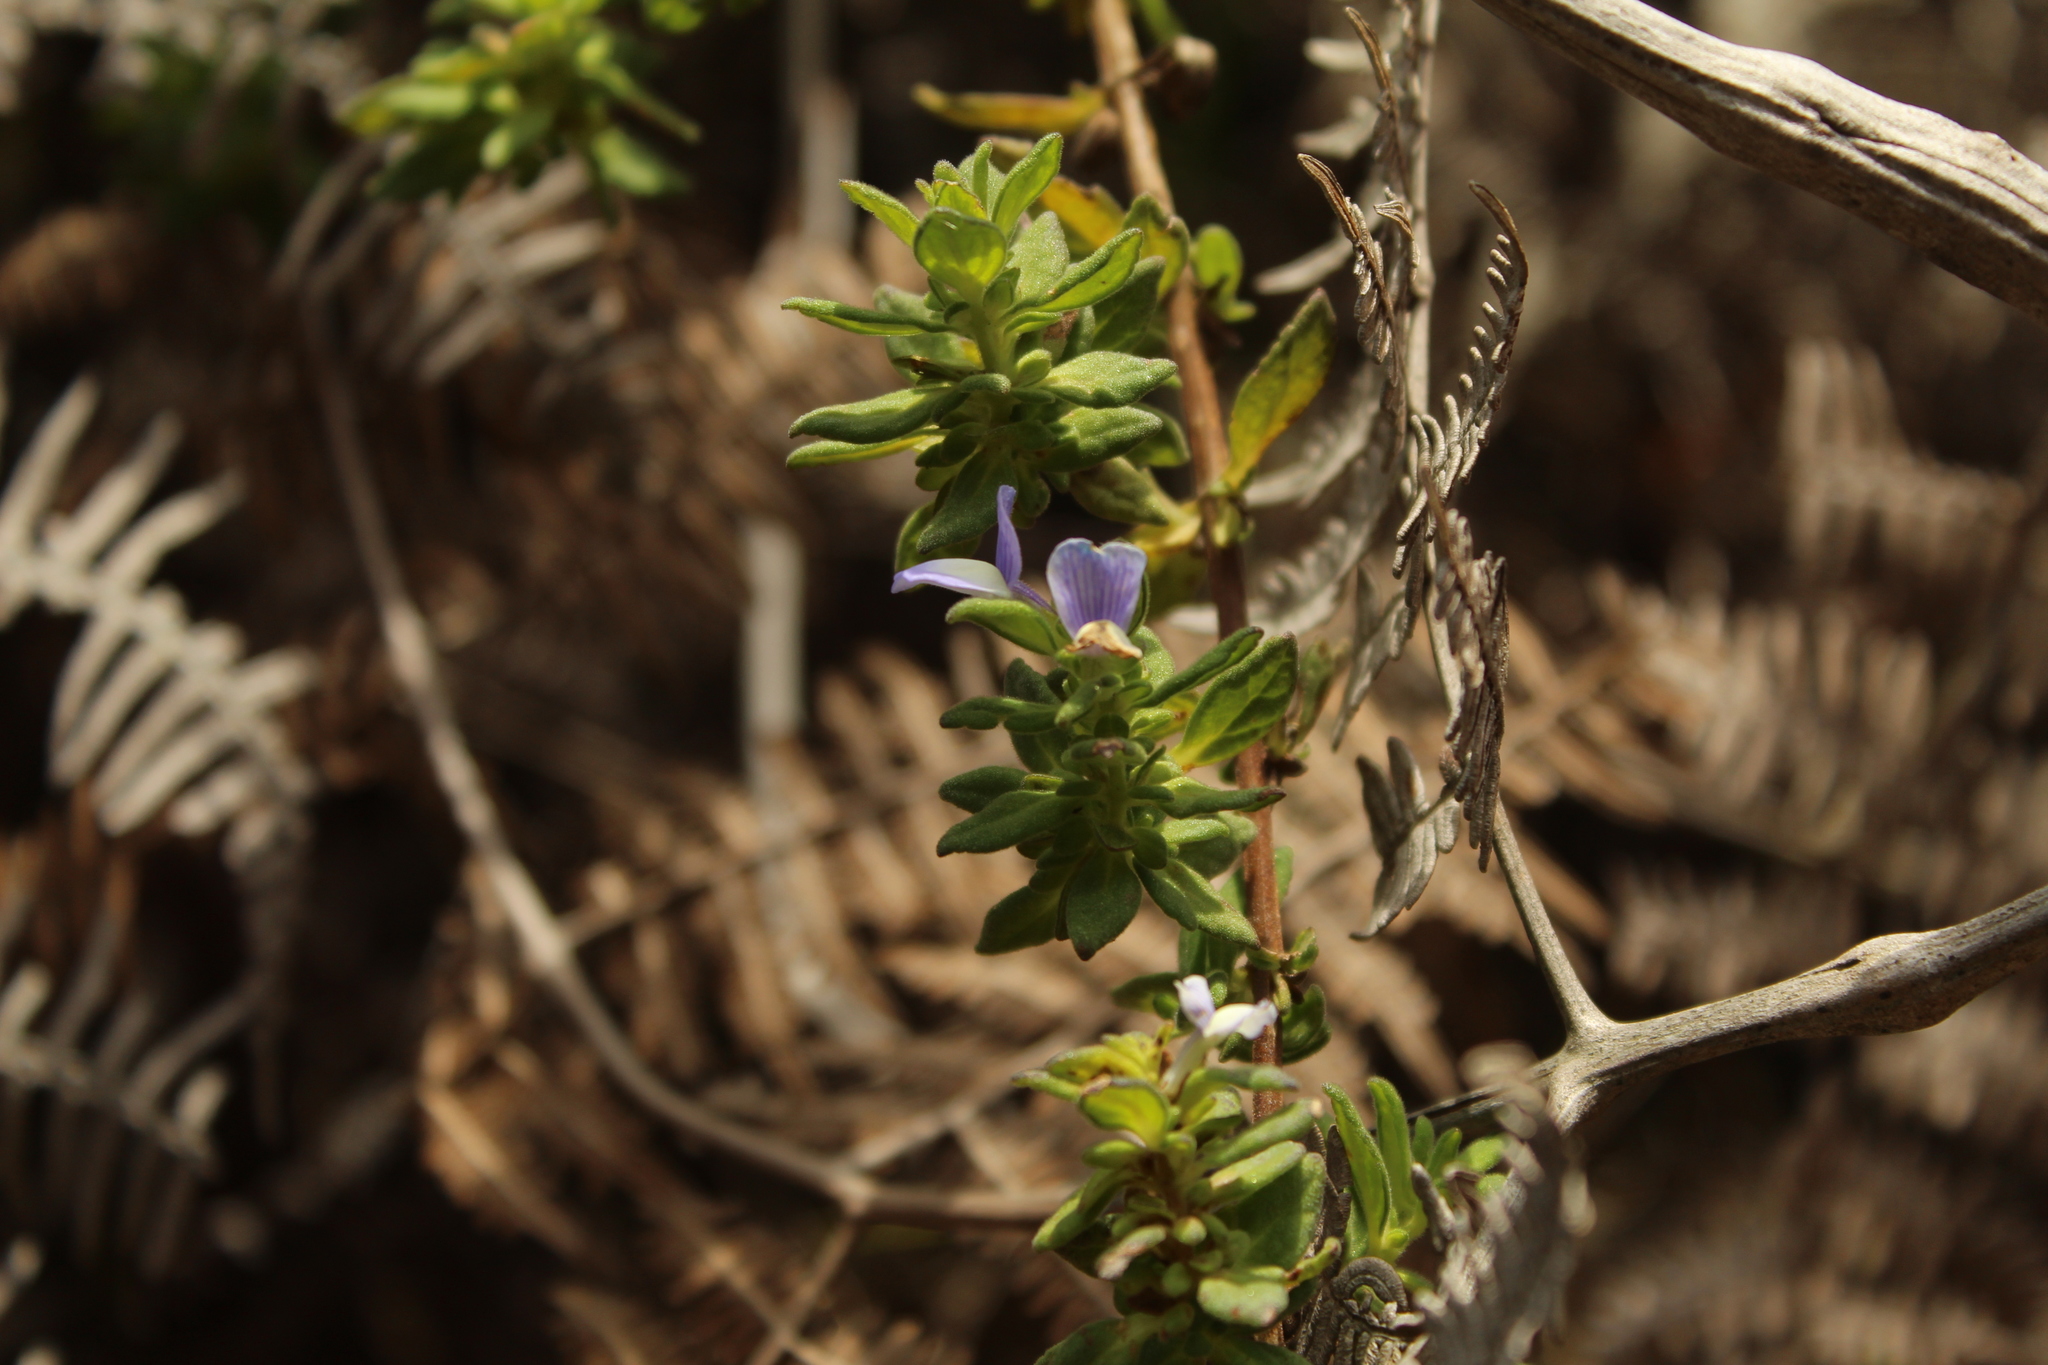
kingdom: Plantae
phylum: Tracheophyta
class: Magnoliopsida
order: Lamiales
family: Plantaginaceae
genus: Matourea
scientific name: Matourea erecta
